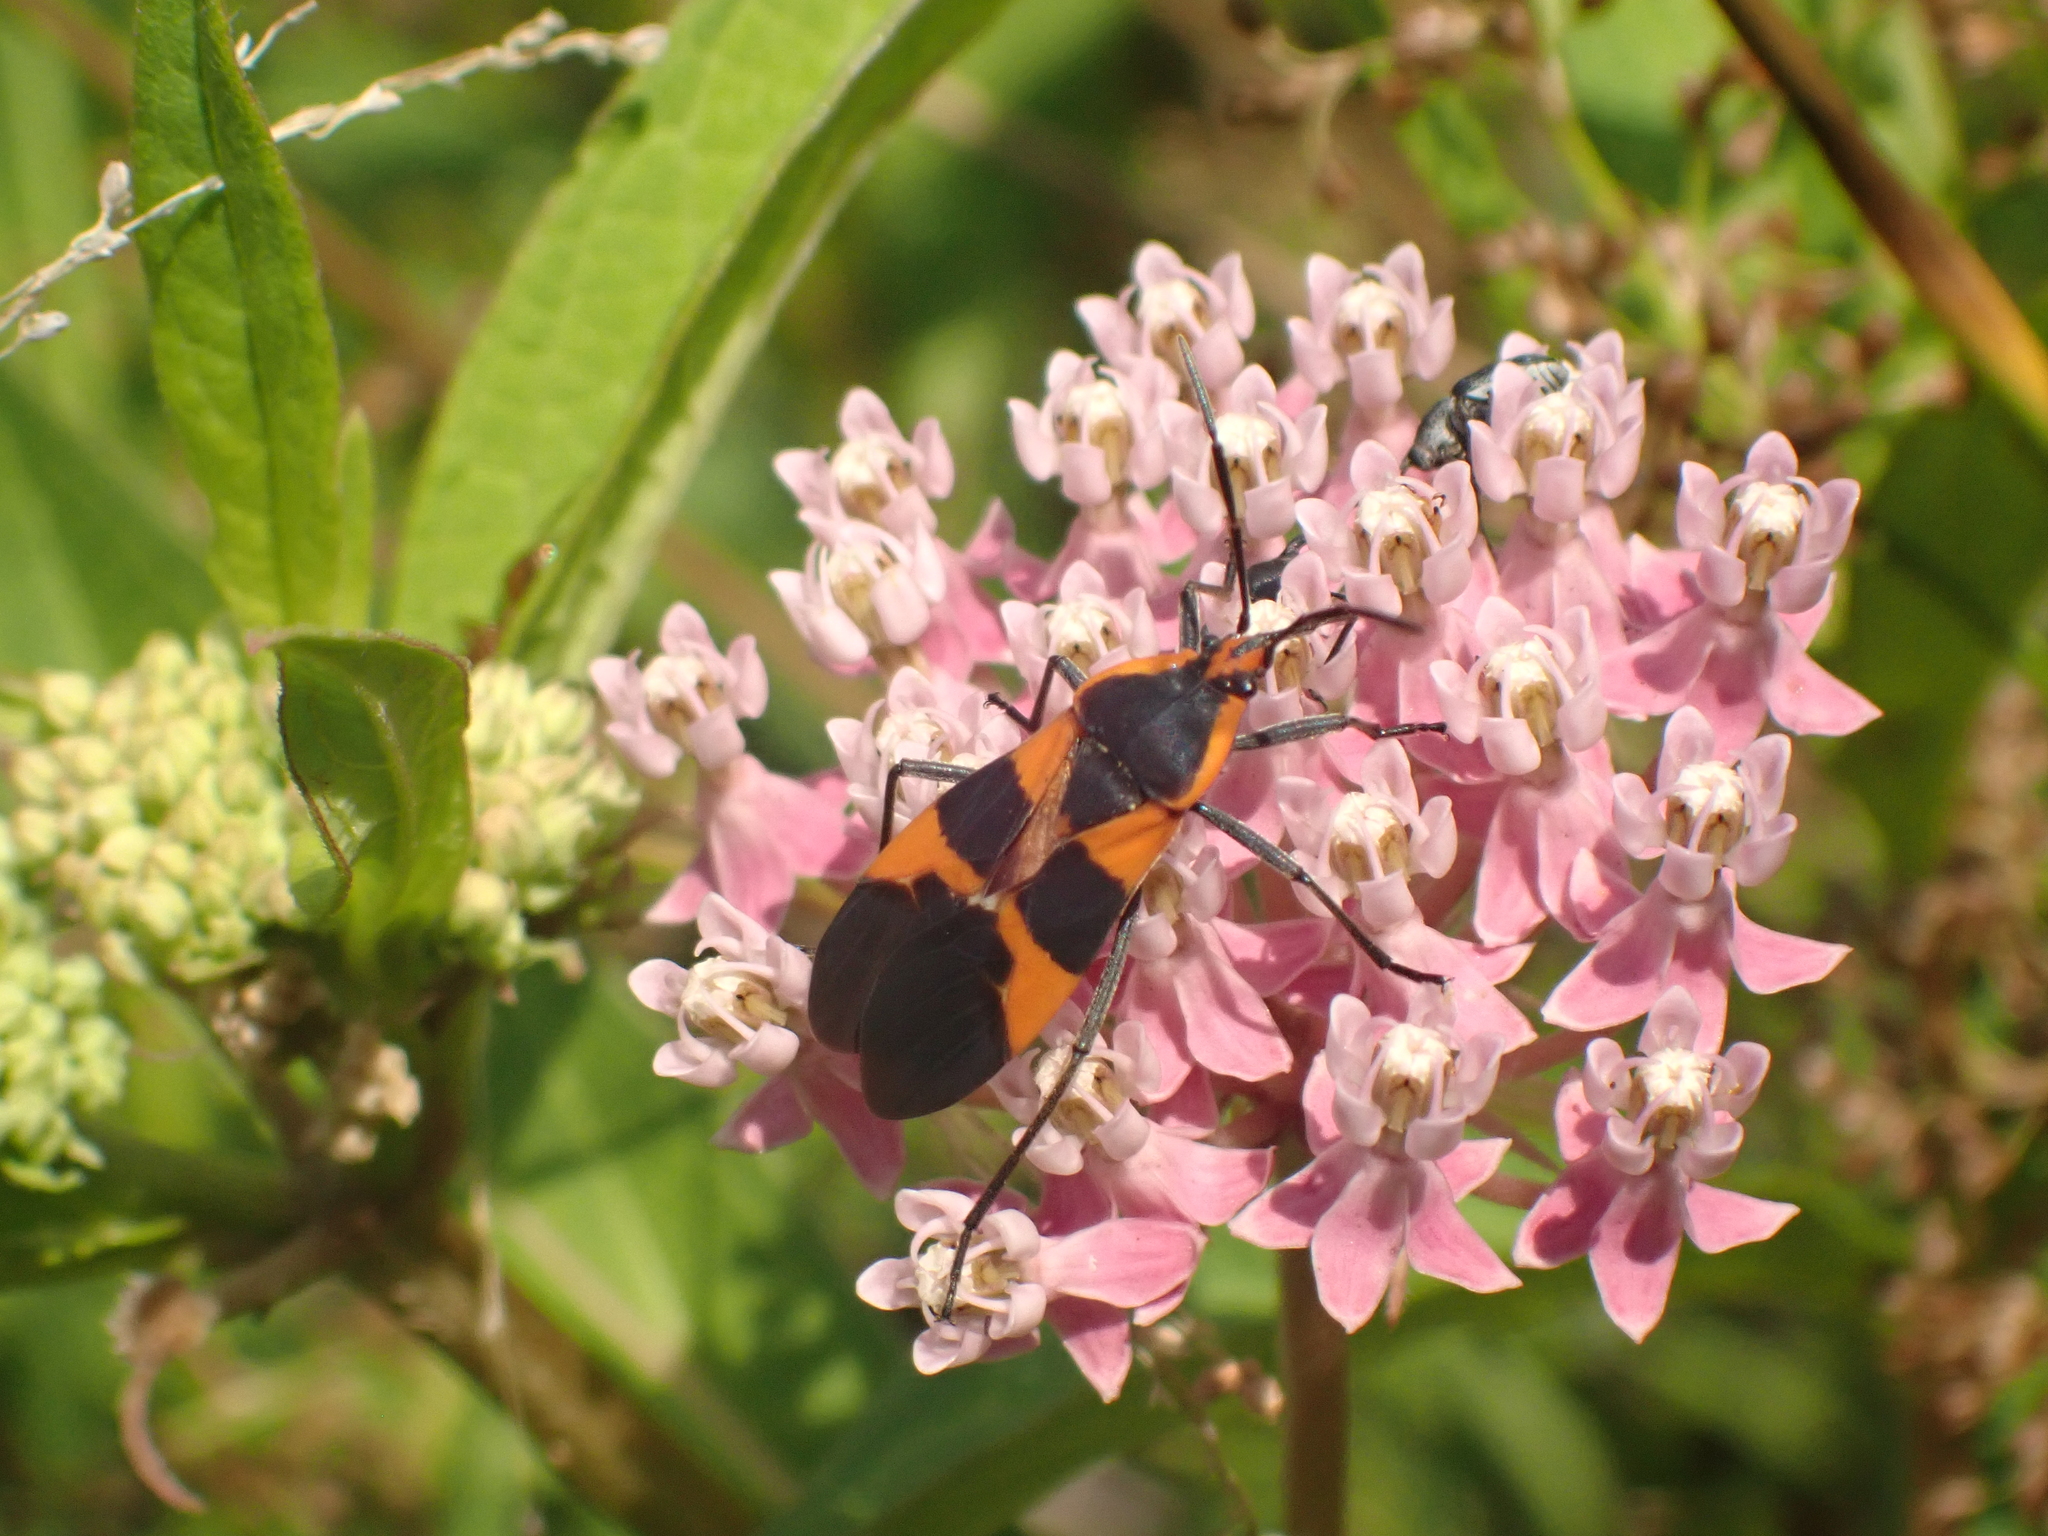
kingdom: Animalia
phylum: Arthropoda
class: Insecta
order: Hemiptera
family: Lygaeidae
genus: Oncopeltus
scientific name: Oncopeltus fasciatus
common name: Large milkweed bug
